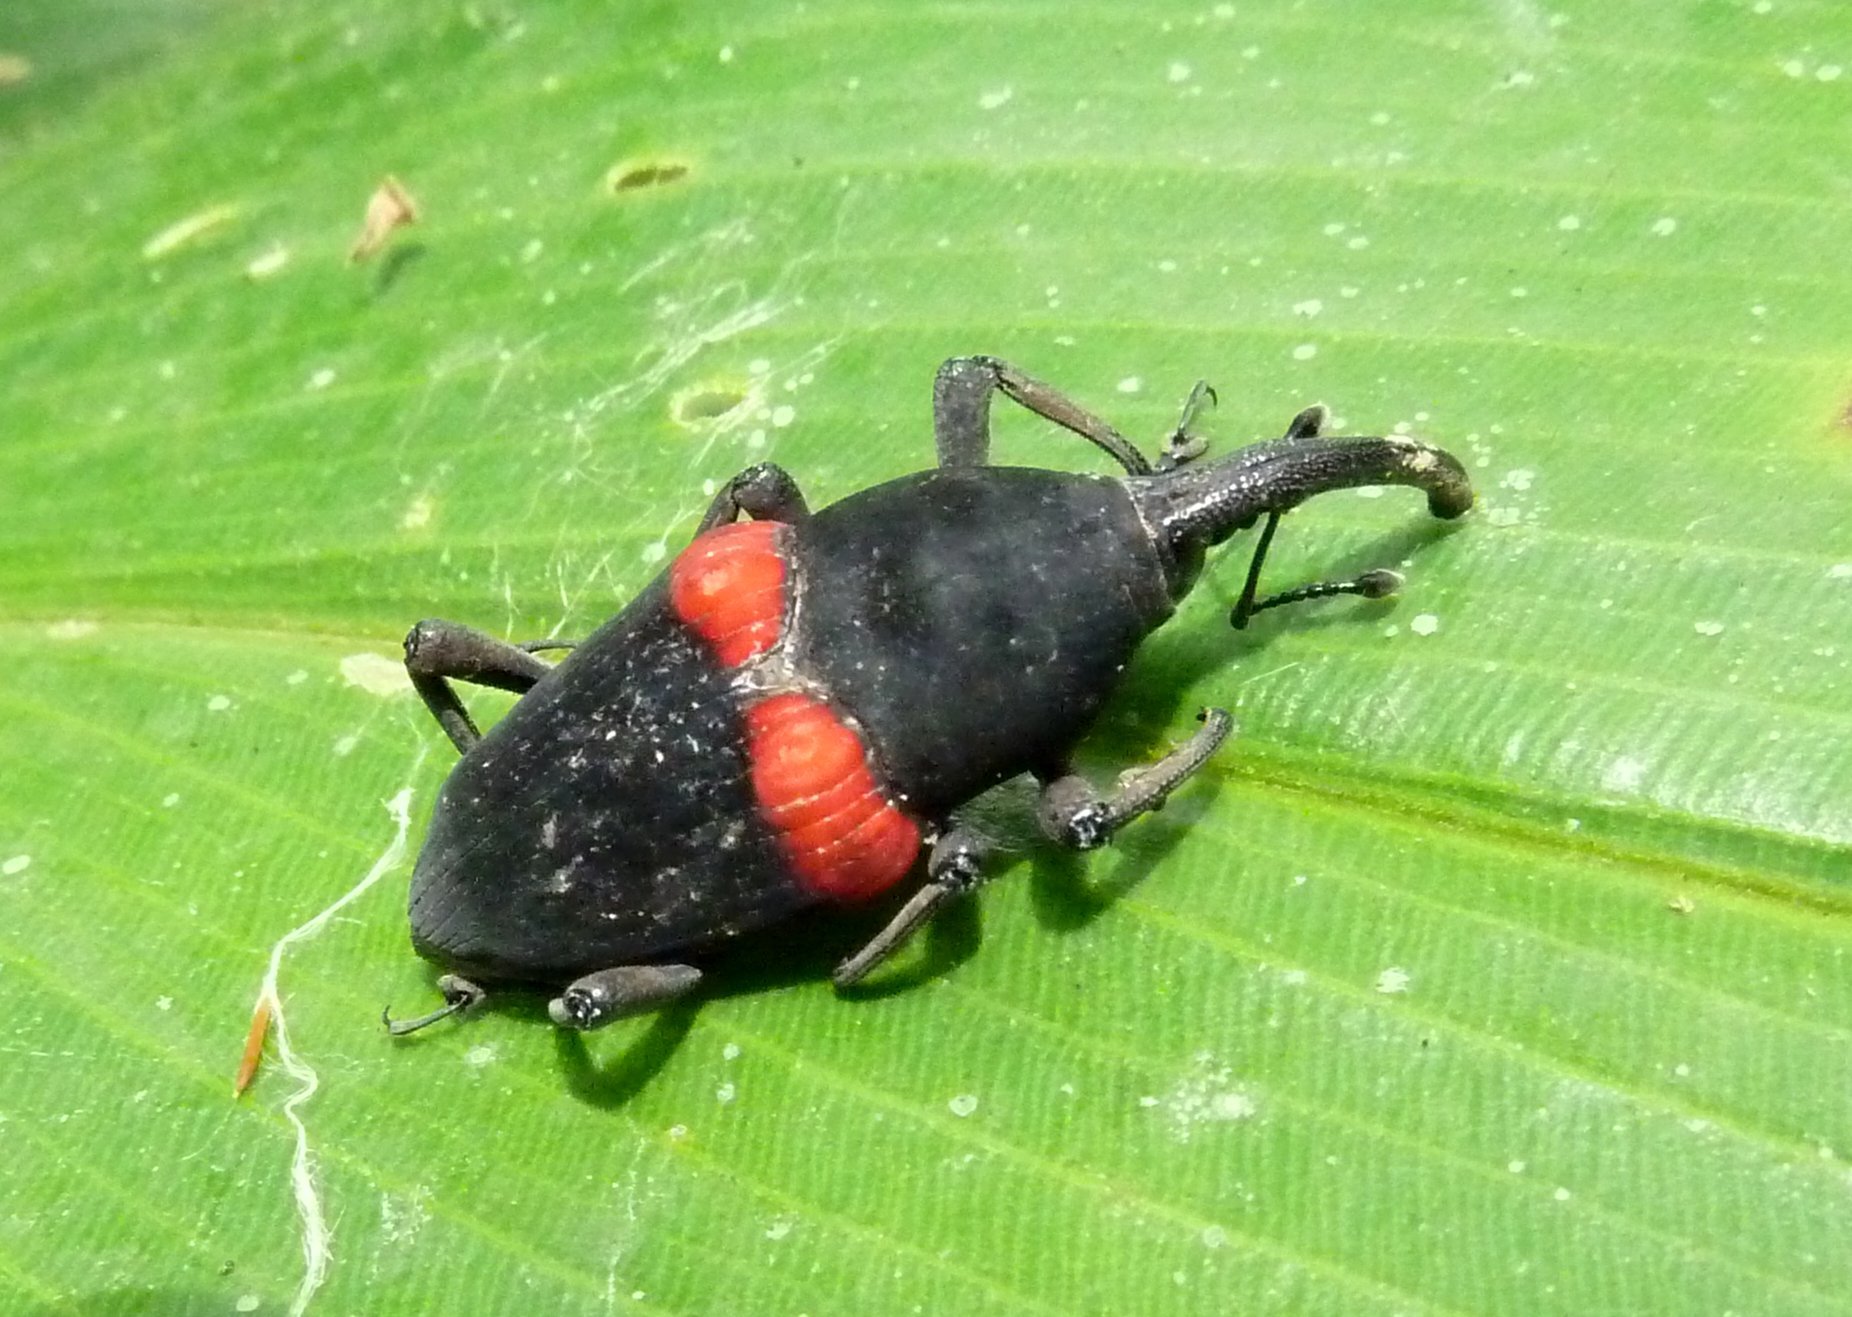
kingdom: Animalia
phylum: Arthropoda
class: Insecta
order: Coleoptera
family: Dryophthoridae
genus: Cactophagus
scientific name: Cactophagus sanguinolentus
